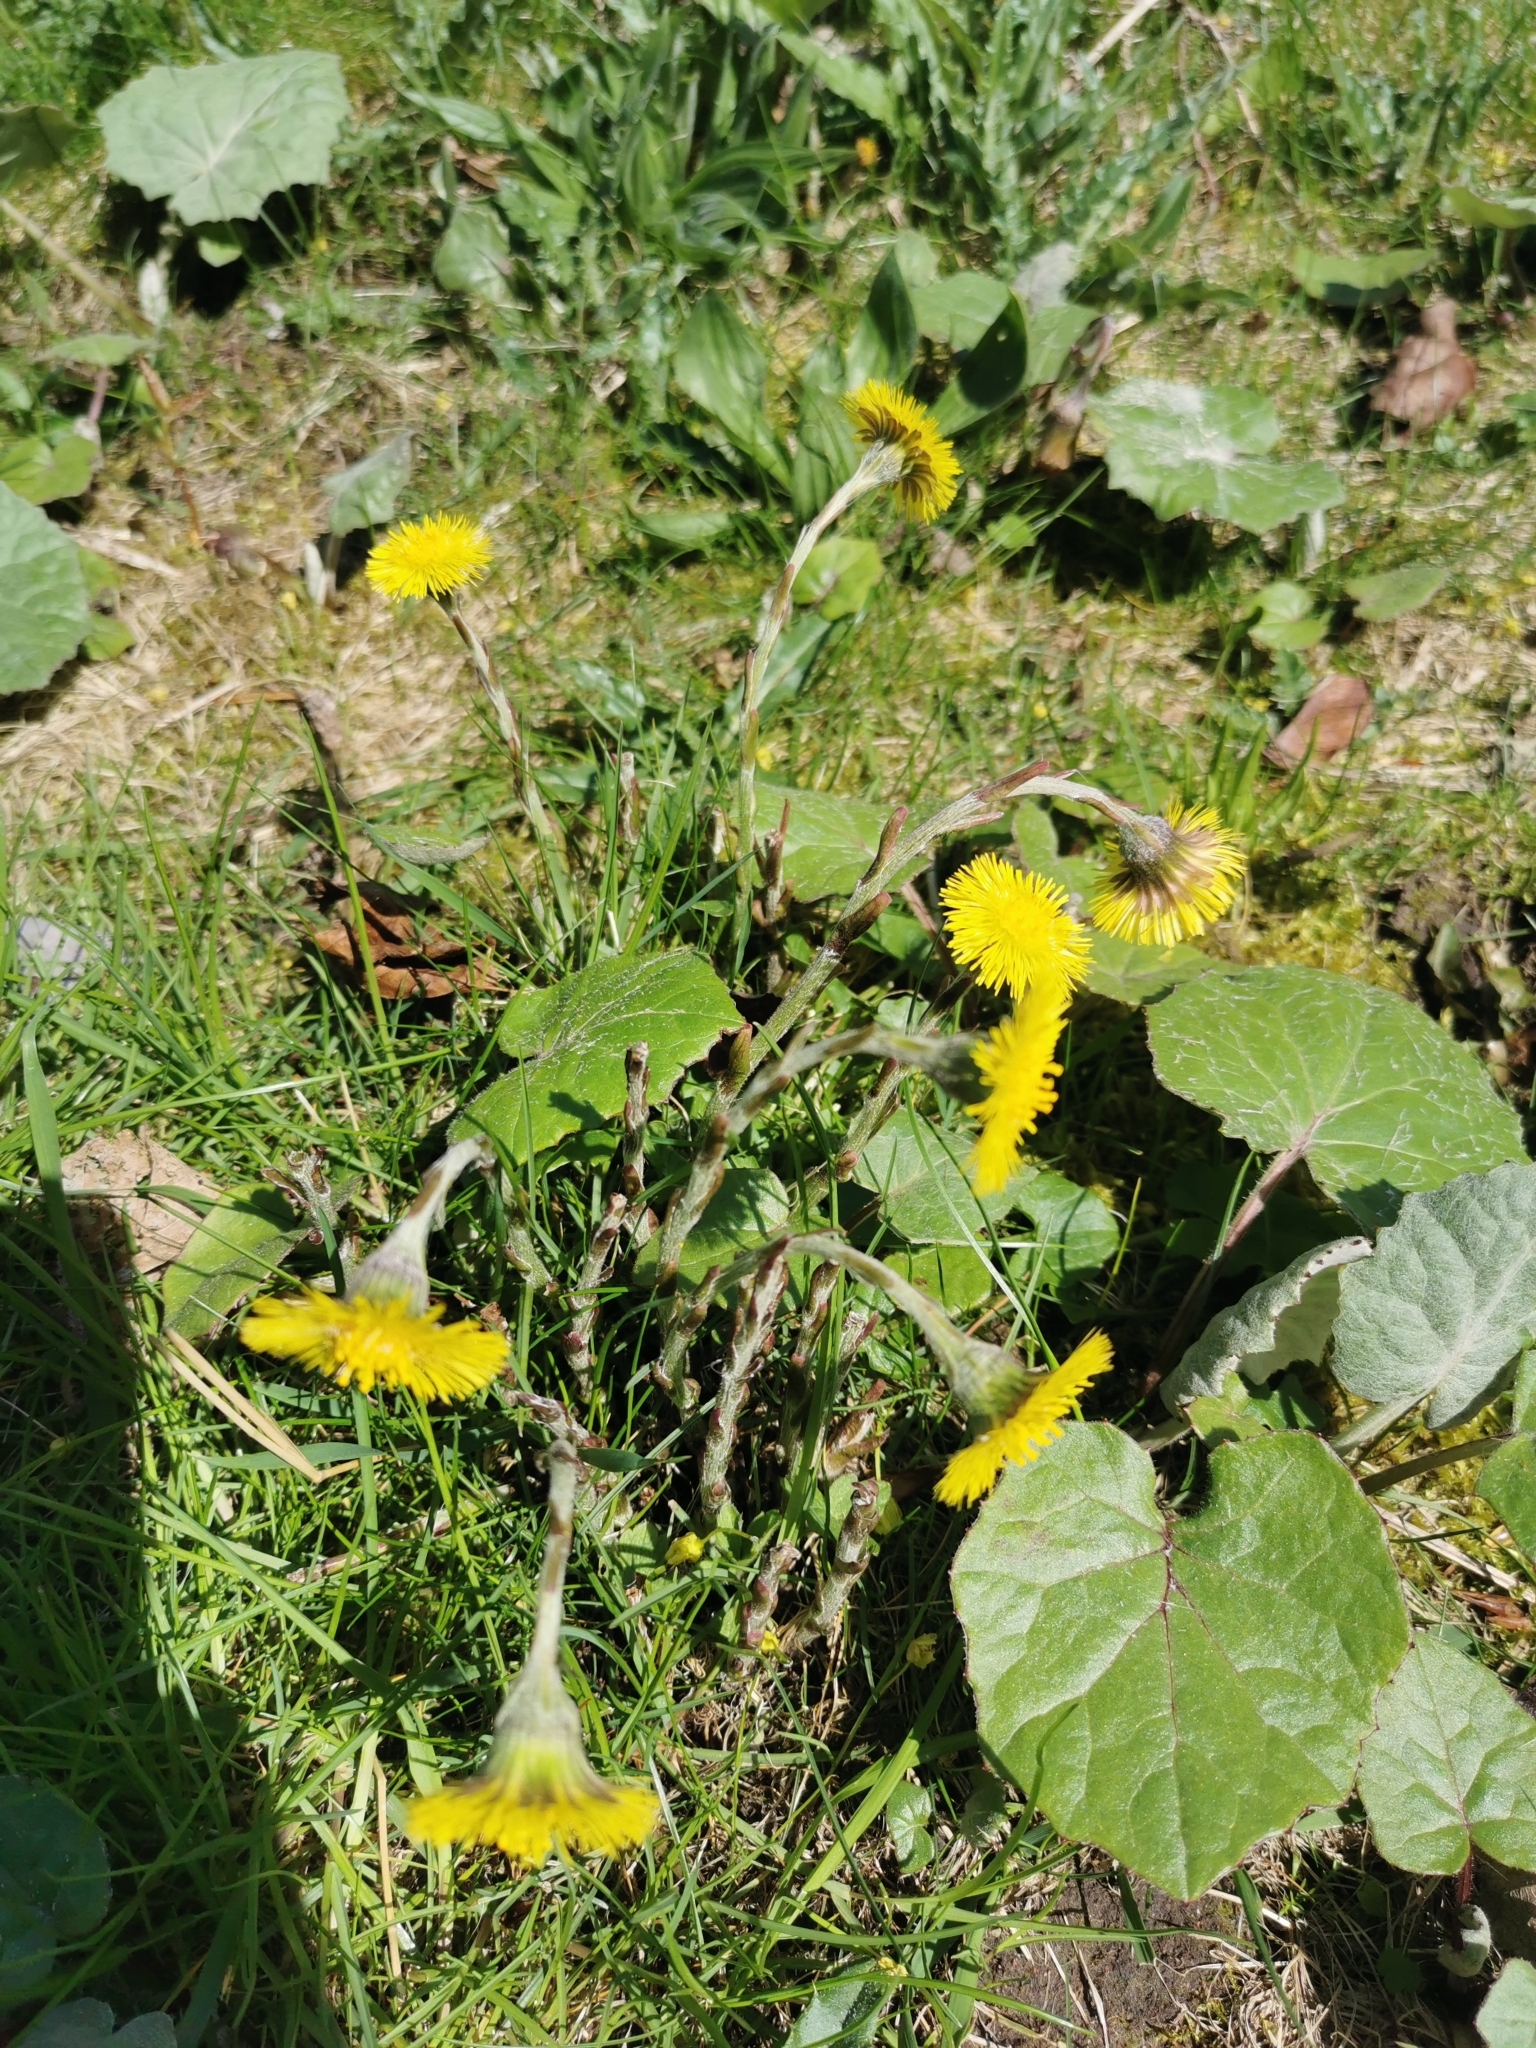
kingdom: Plantae
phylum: Tracheophyta
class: Magnoliopsida
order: Asterales
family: Asteraceae
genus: Tussilago
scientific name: Tussilago farfara
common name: Coltsfoot
